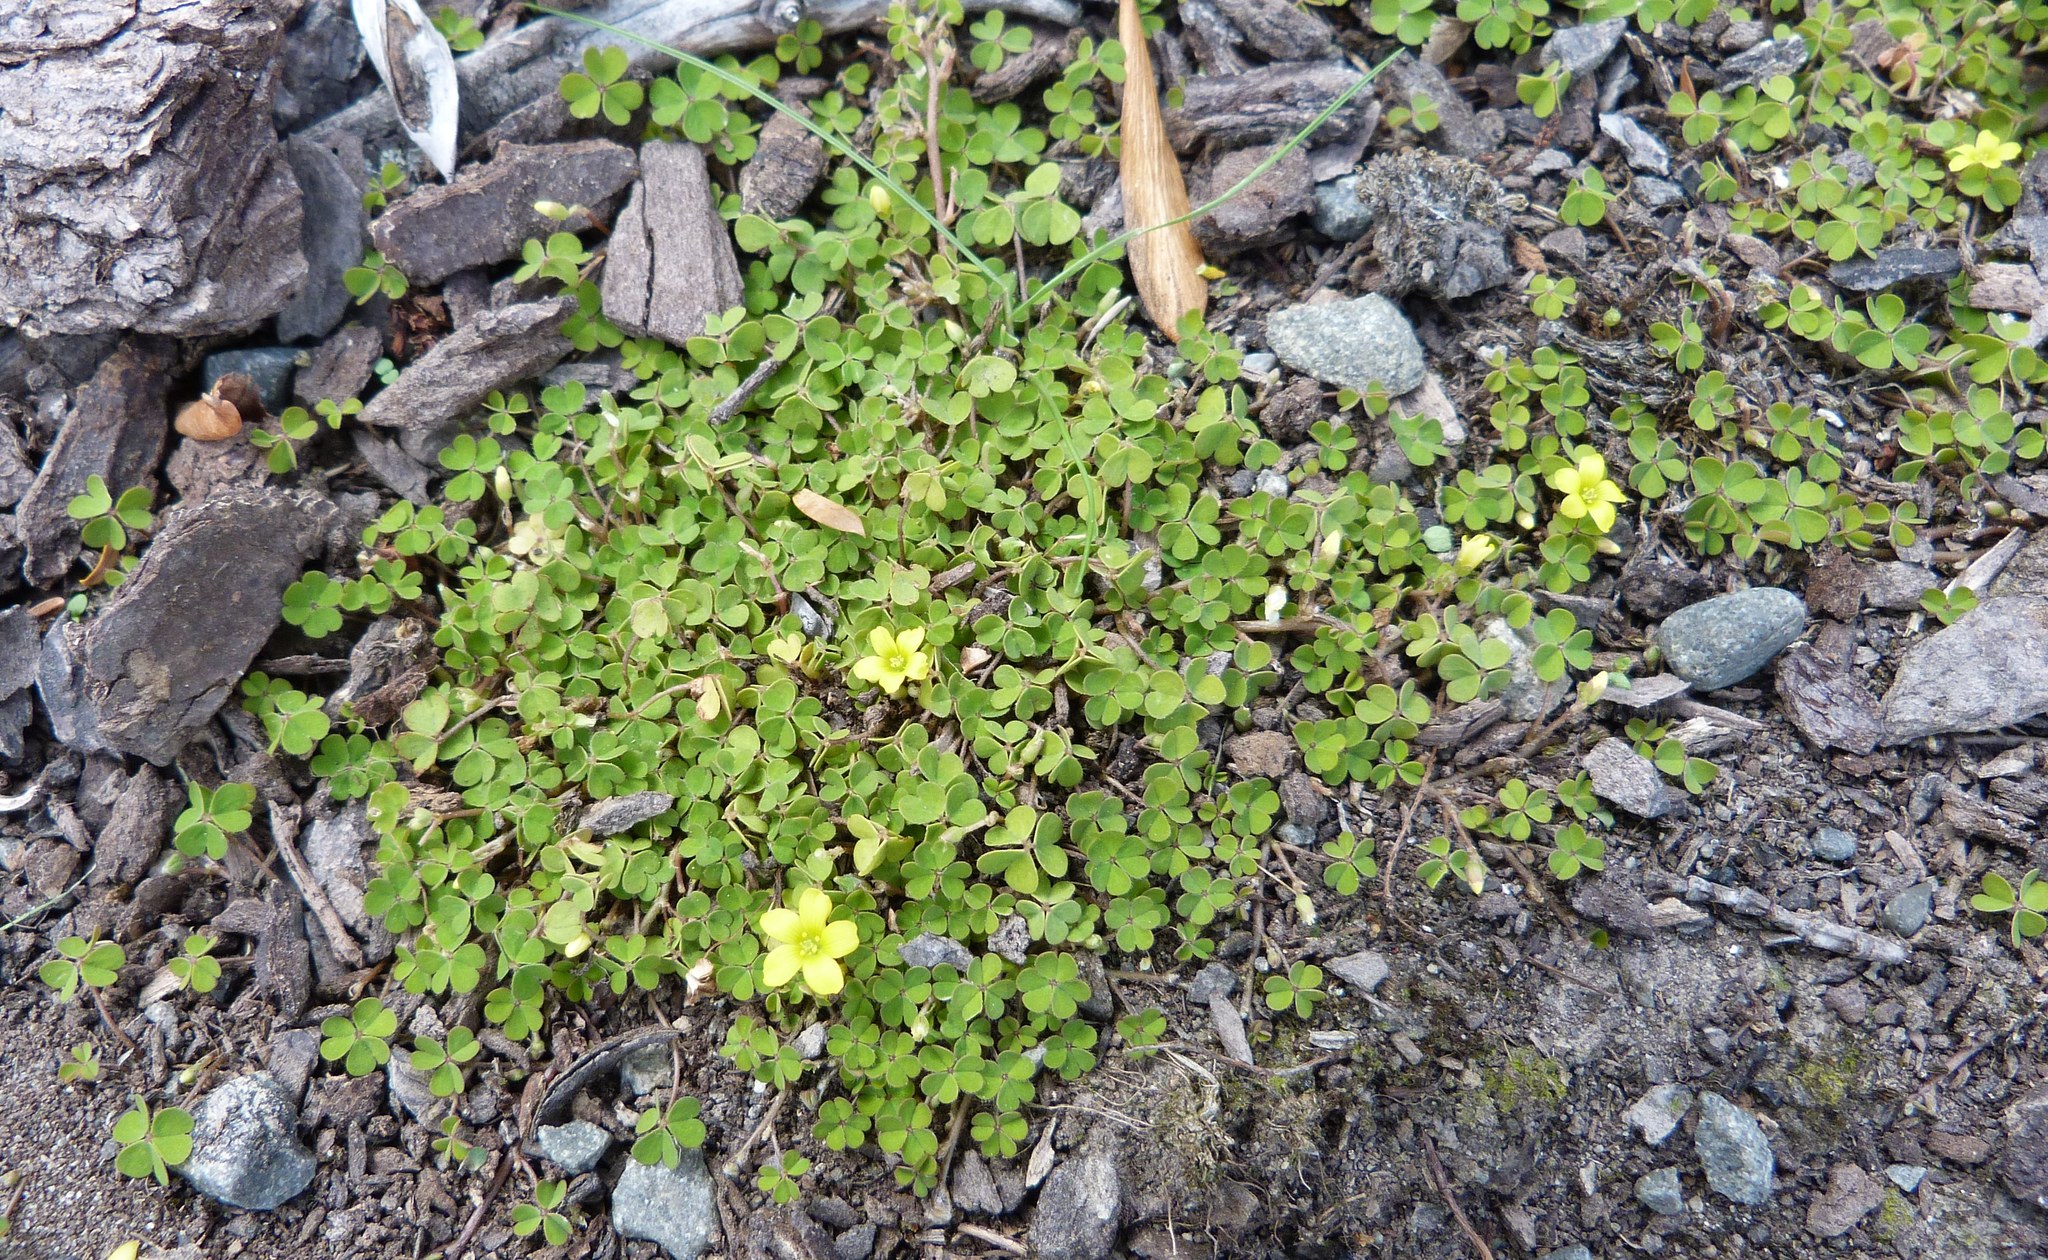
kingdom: Plantae
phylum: Tracheophyta
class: Magnoliopsida
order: Oxalidales
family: Oxalidaceae
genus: Oxalis
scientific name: Oxalis exilis
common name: Least yellow-sorrel
